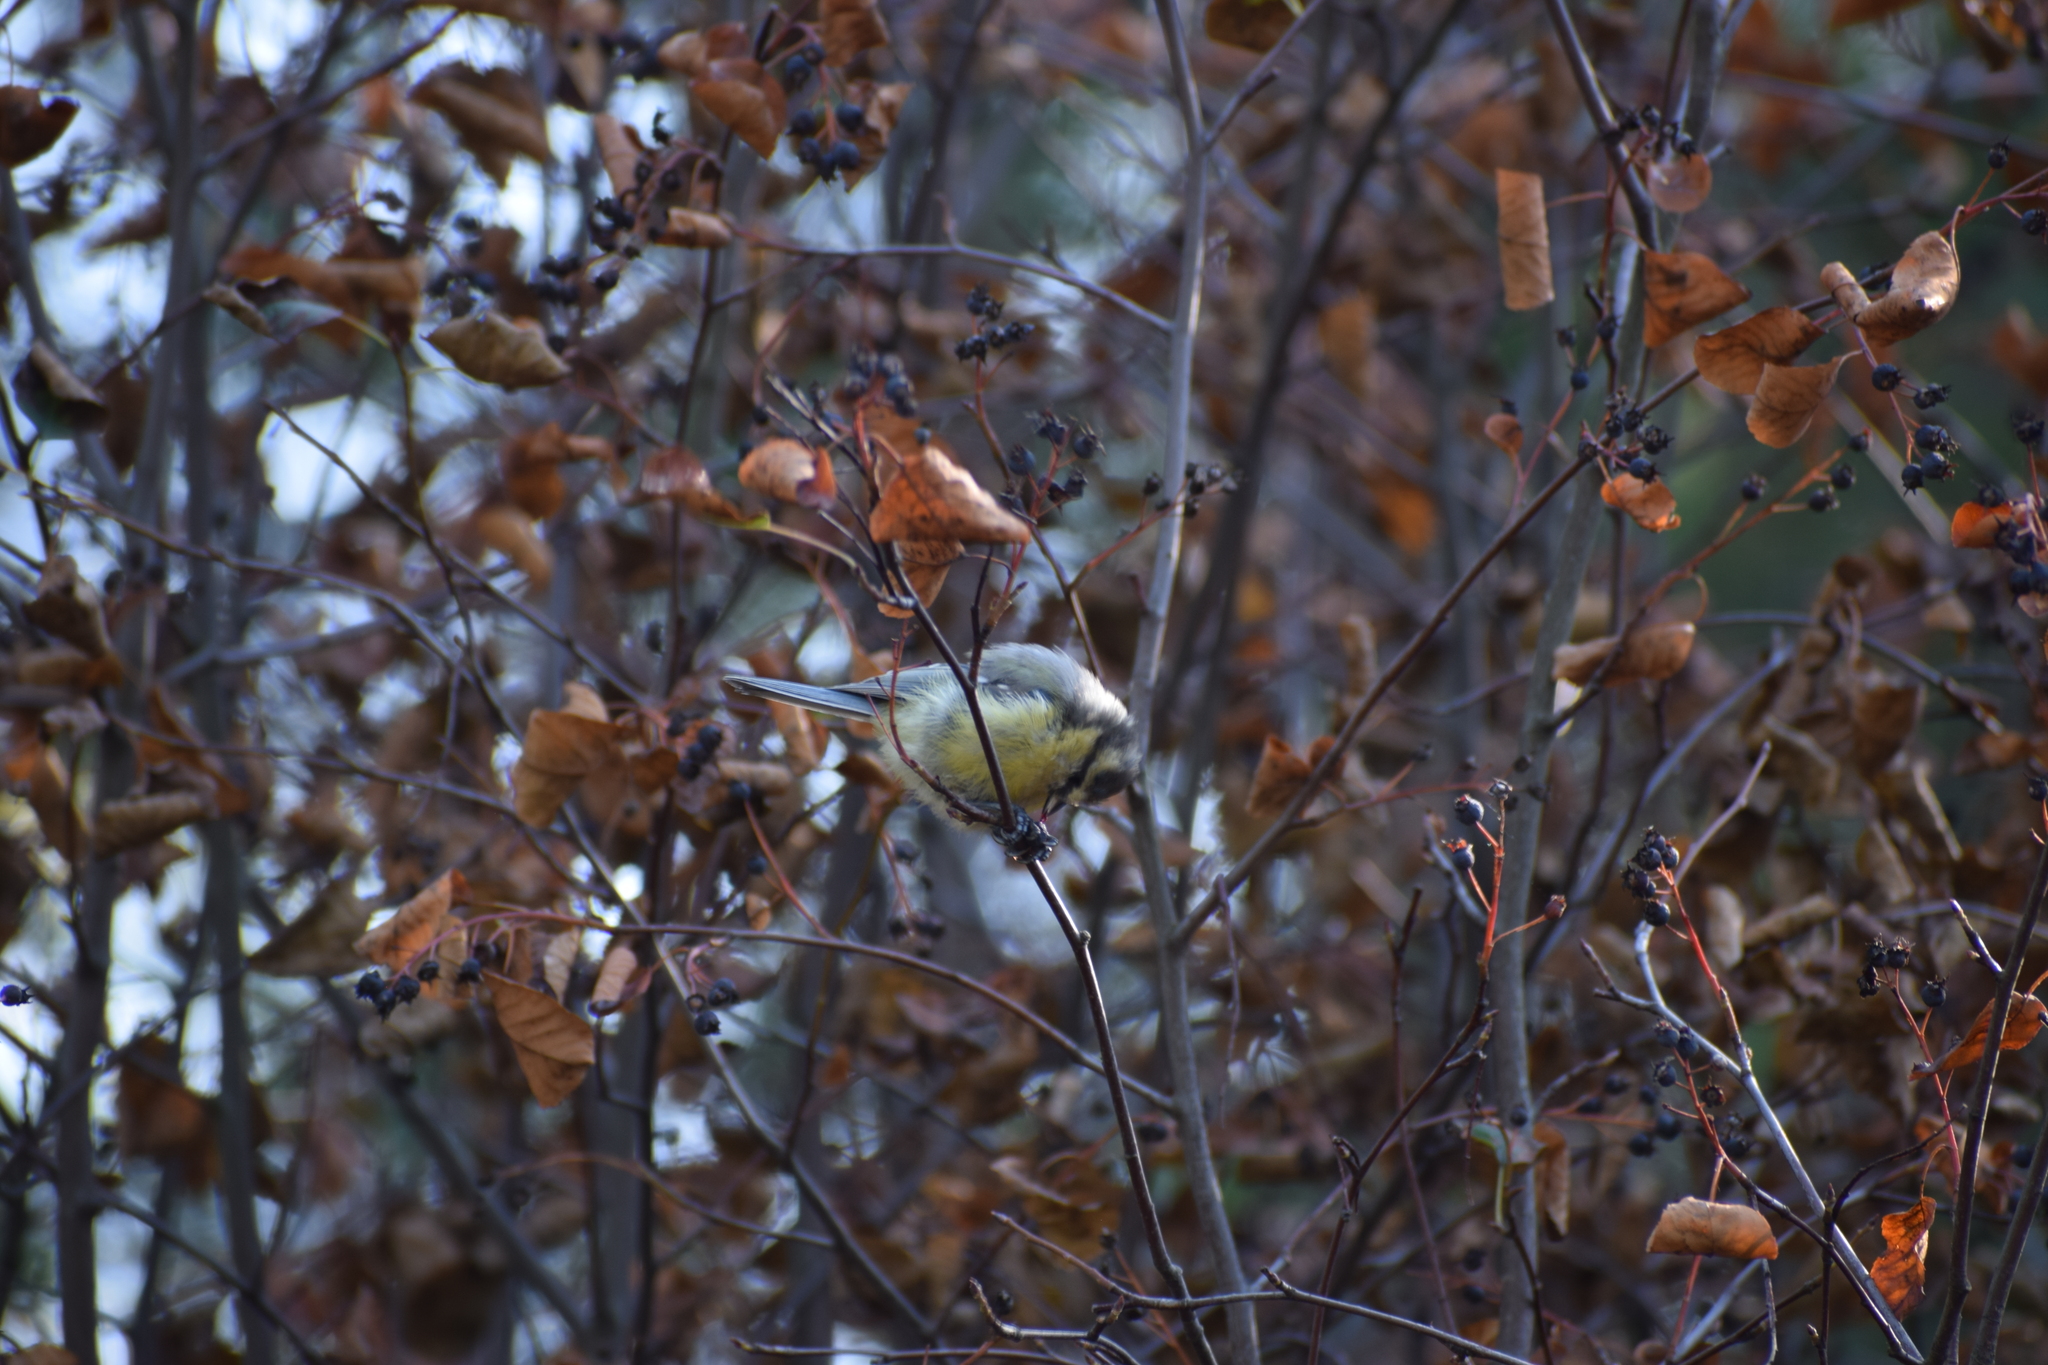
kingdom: Animalia
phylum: Chordata
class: Aves
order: Passeriformes
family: Paridae
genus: Cyanistes
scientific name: Cyanistes caeruleus
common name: Eurasian blue tit
